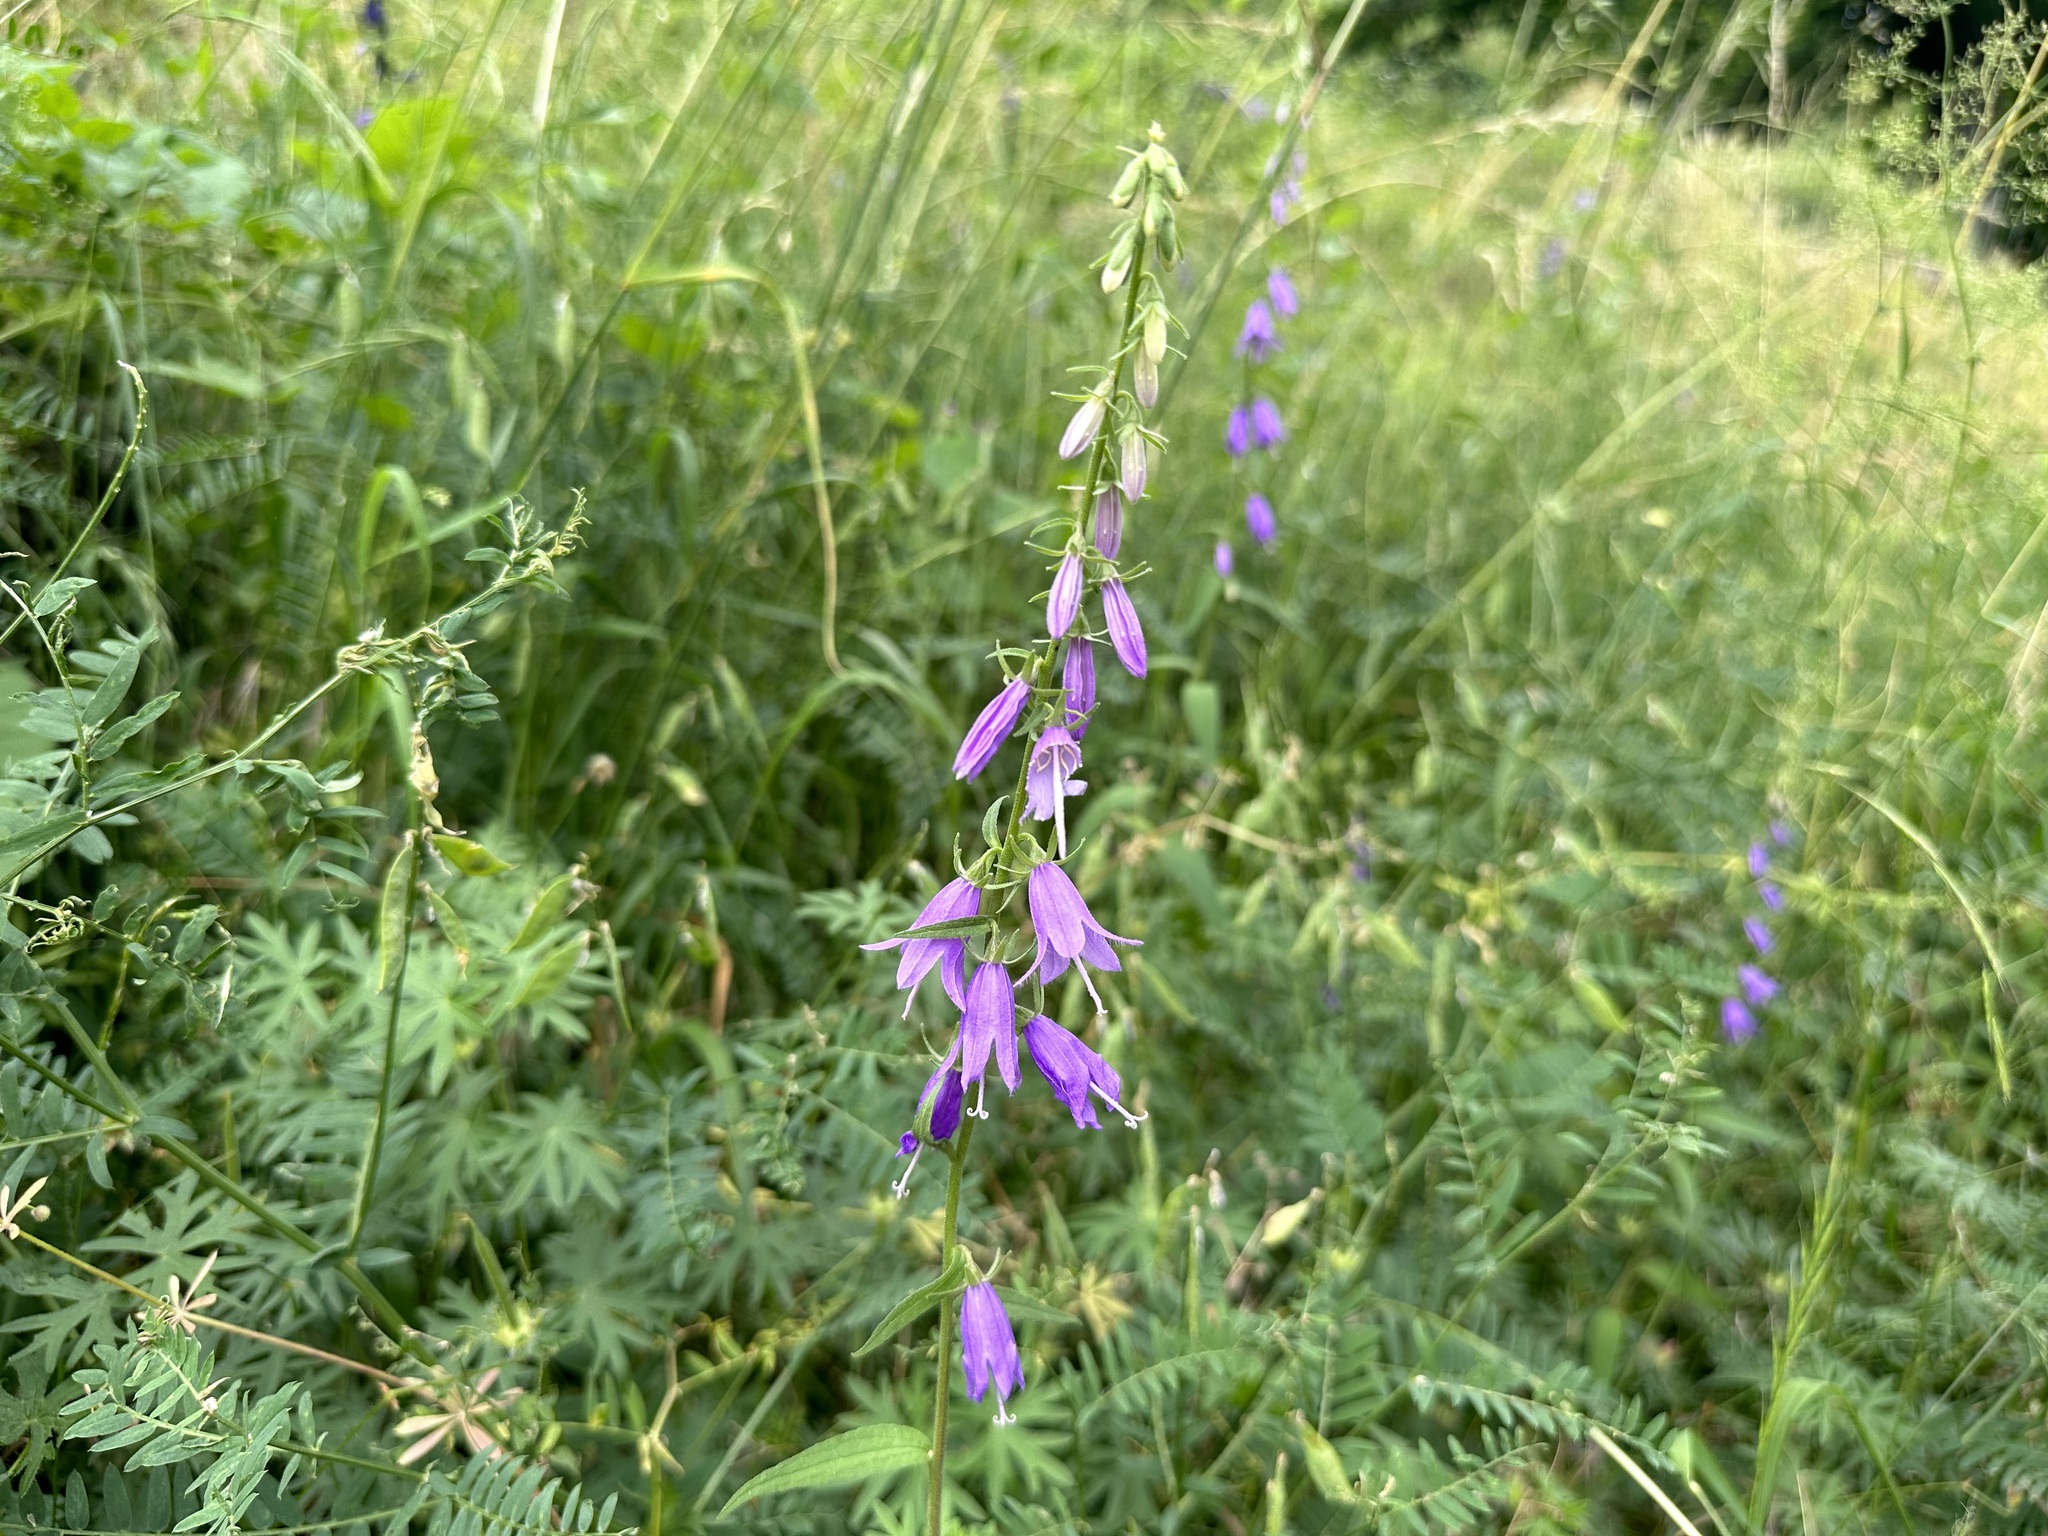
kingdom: Plantae
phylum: Tracheophyta
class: Magnoliopsida
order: Asterales
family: Campanulaceae
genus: Campanula
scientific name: Campanula rapunculoides
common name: Creeping bellflower
